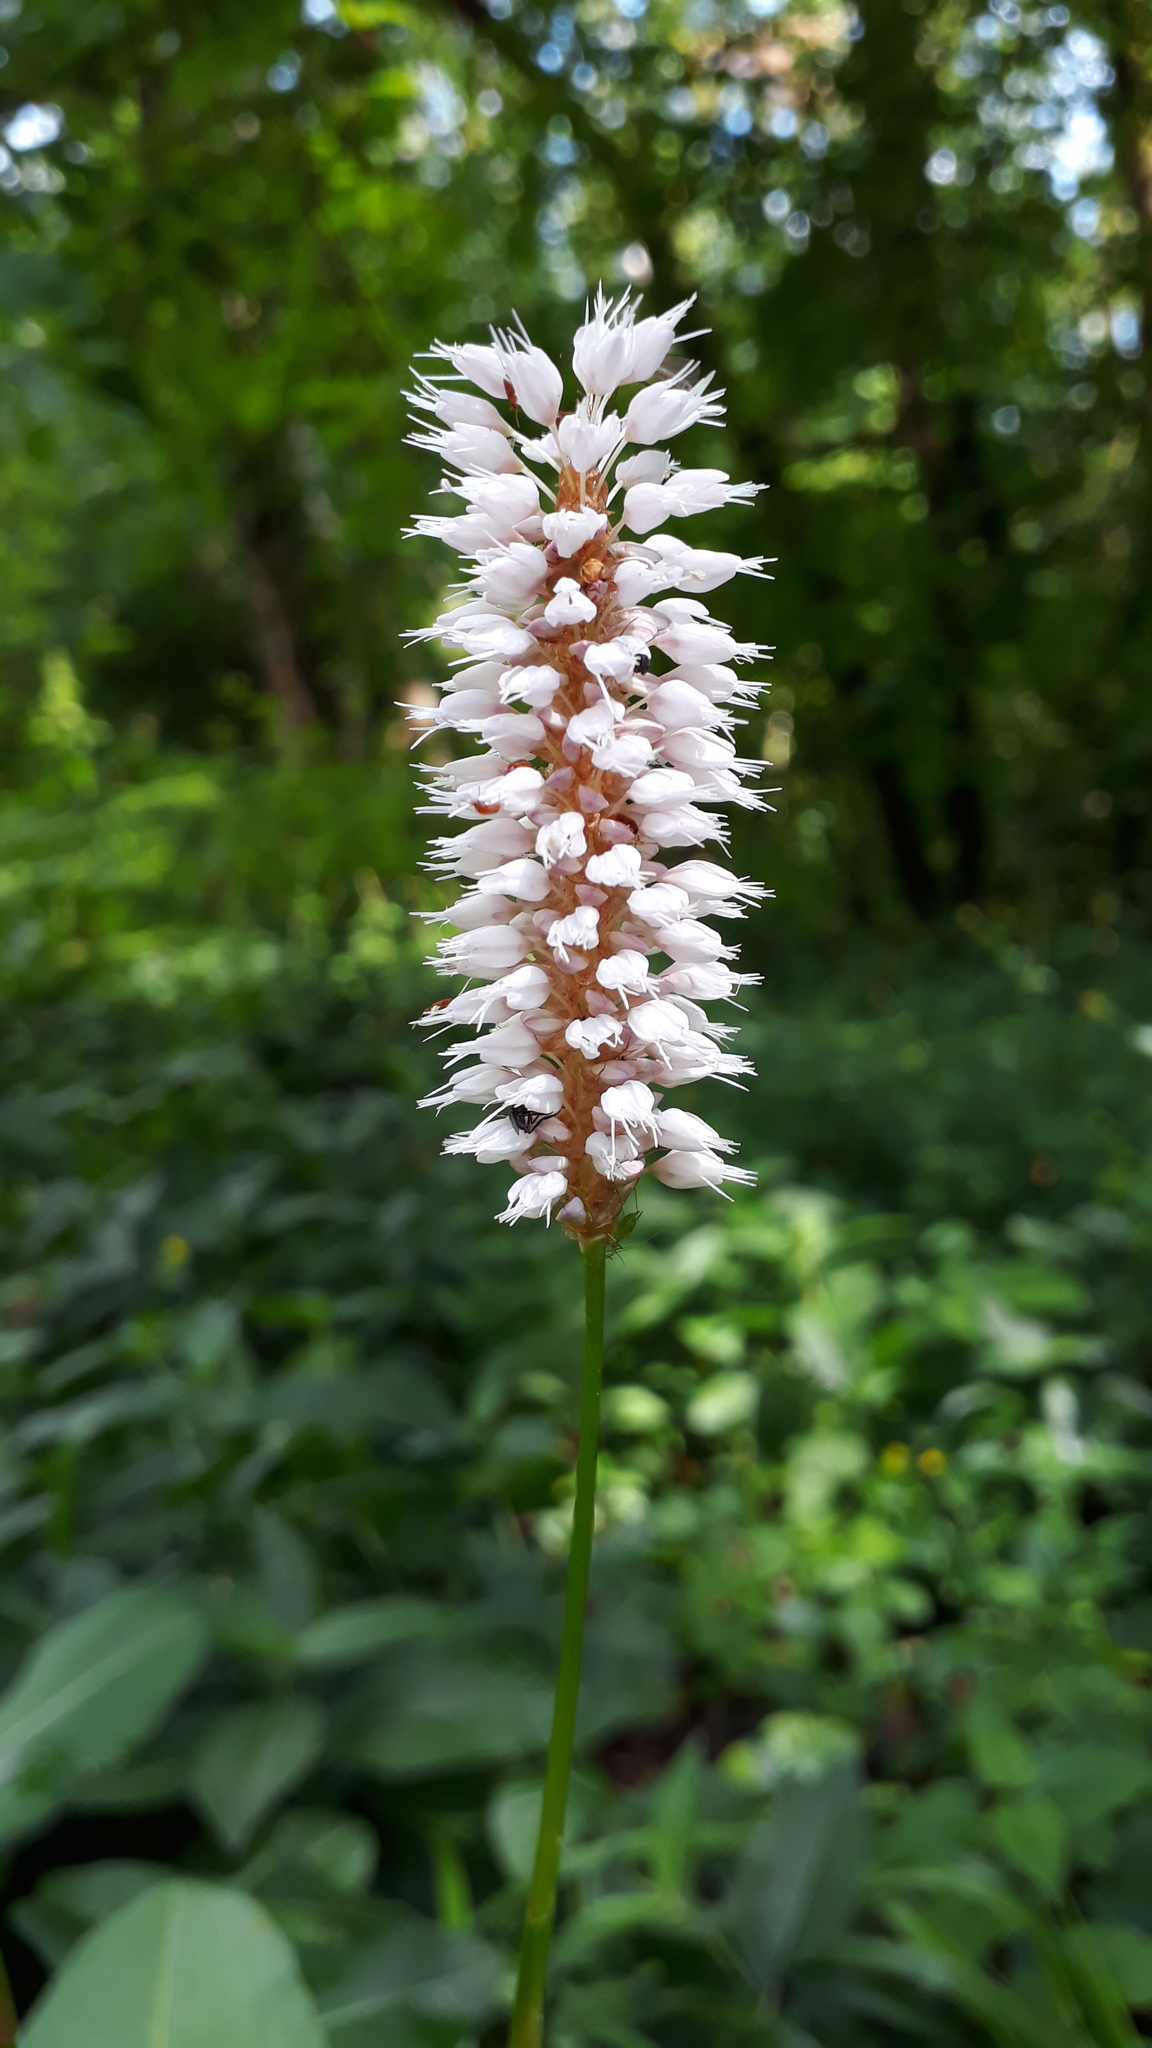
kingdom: Plantae
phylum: Tracheophyta
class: Magnoliopsida
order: Caryophyllales
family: Polygonaceae
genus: Bistorta
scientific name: Bistorta officinalis
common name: Common bistort
